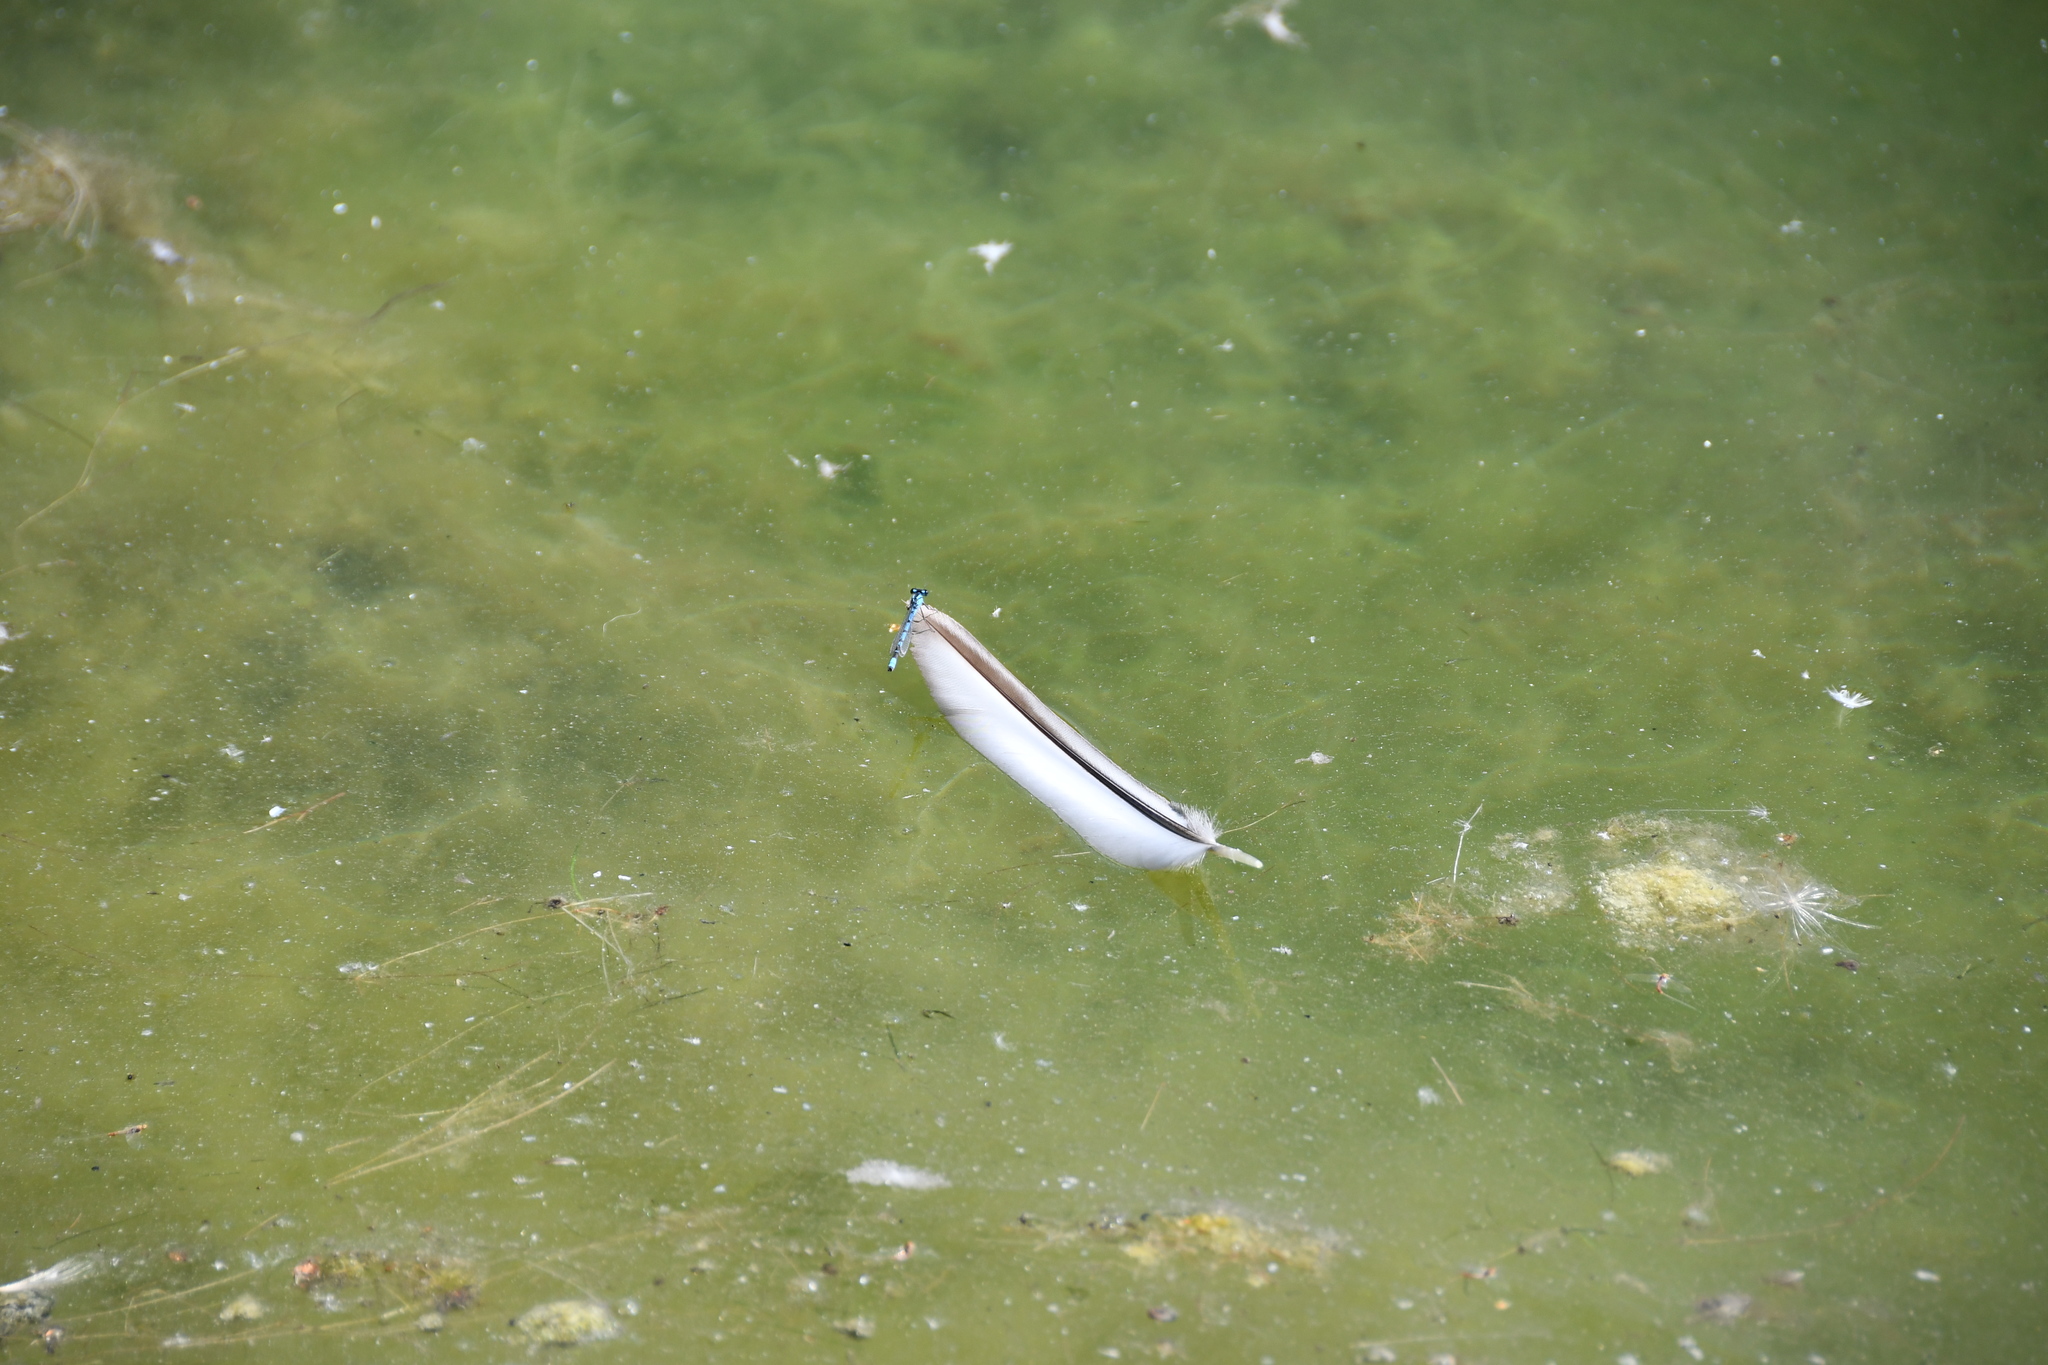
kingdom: Animalia
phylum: Arthropoda
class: Insecta
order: Odonata
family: Coenagrionidae
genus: Enallagma
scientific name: Enallagma cyathigerum
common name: Common blue damselfly
